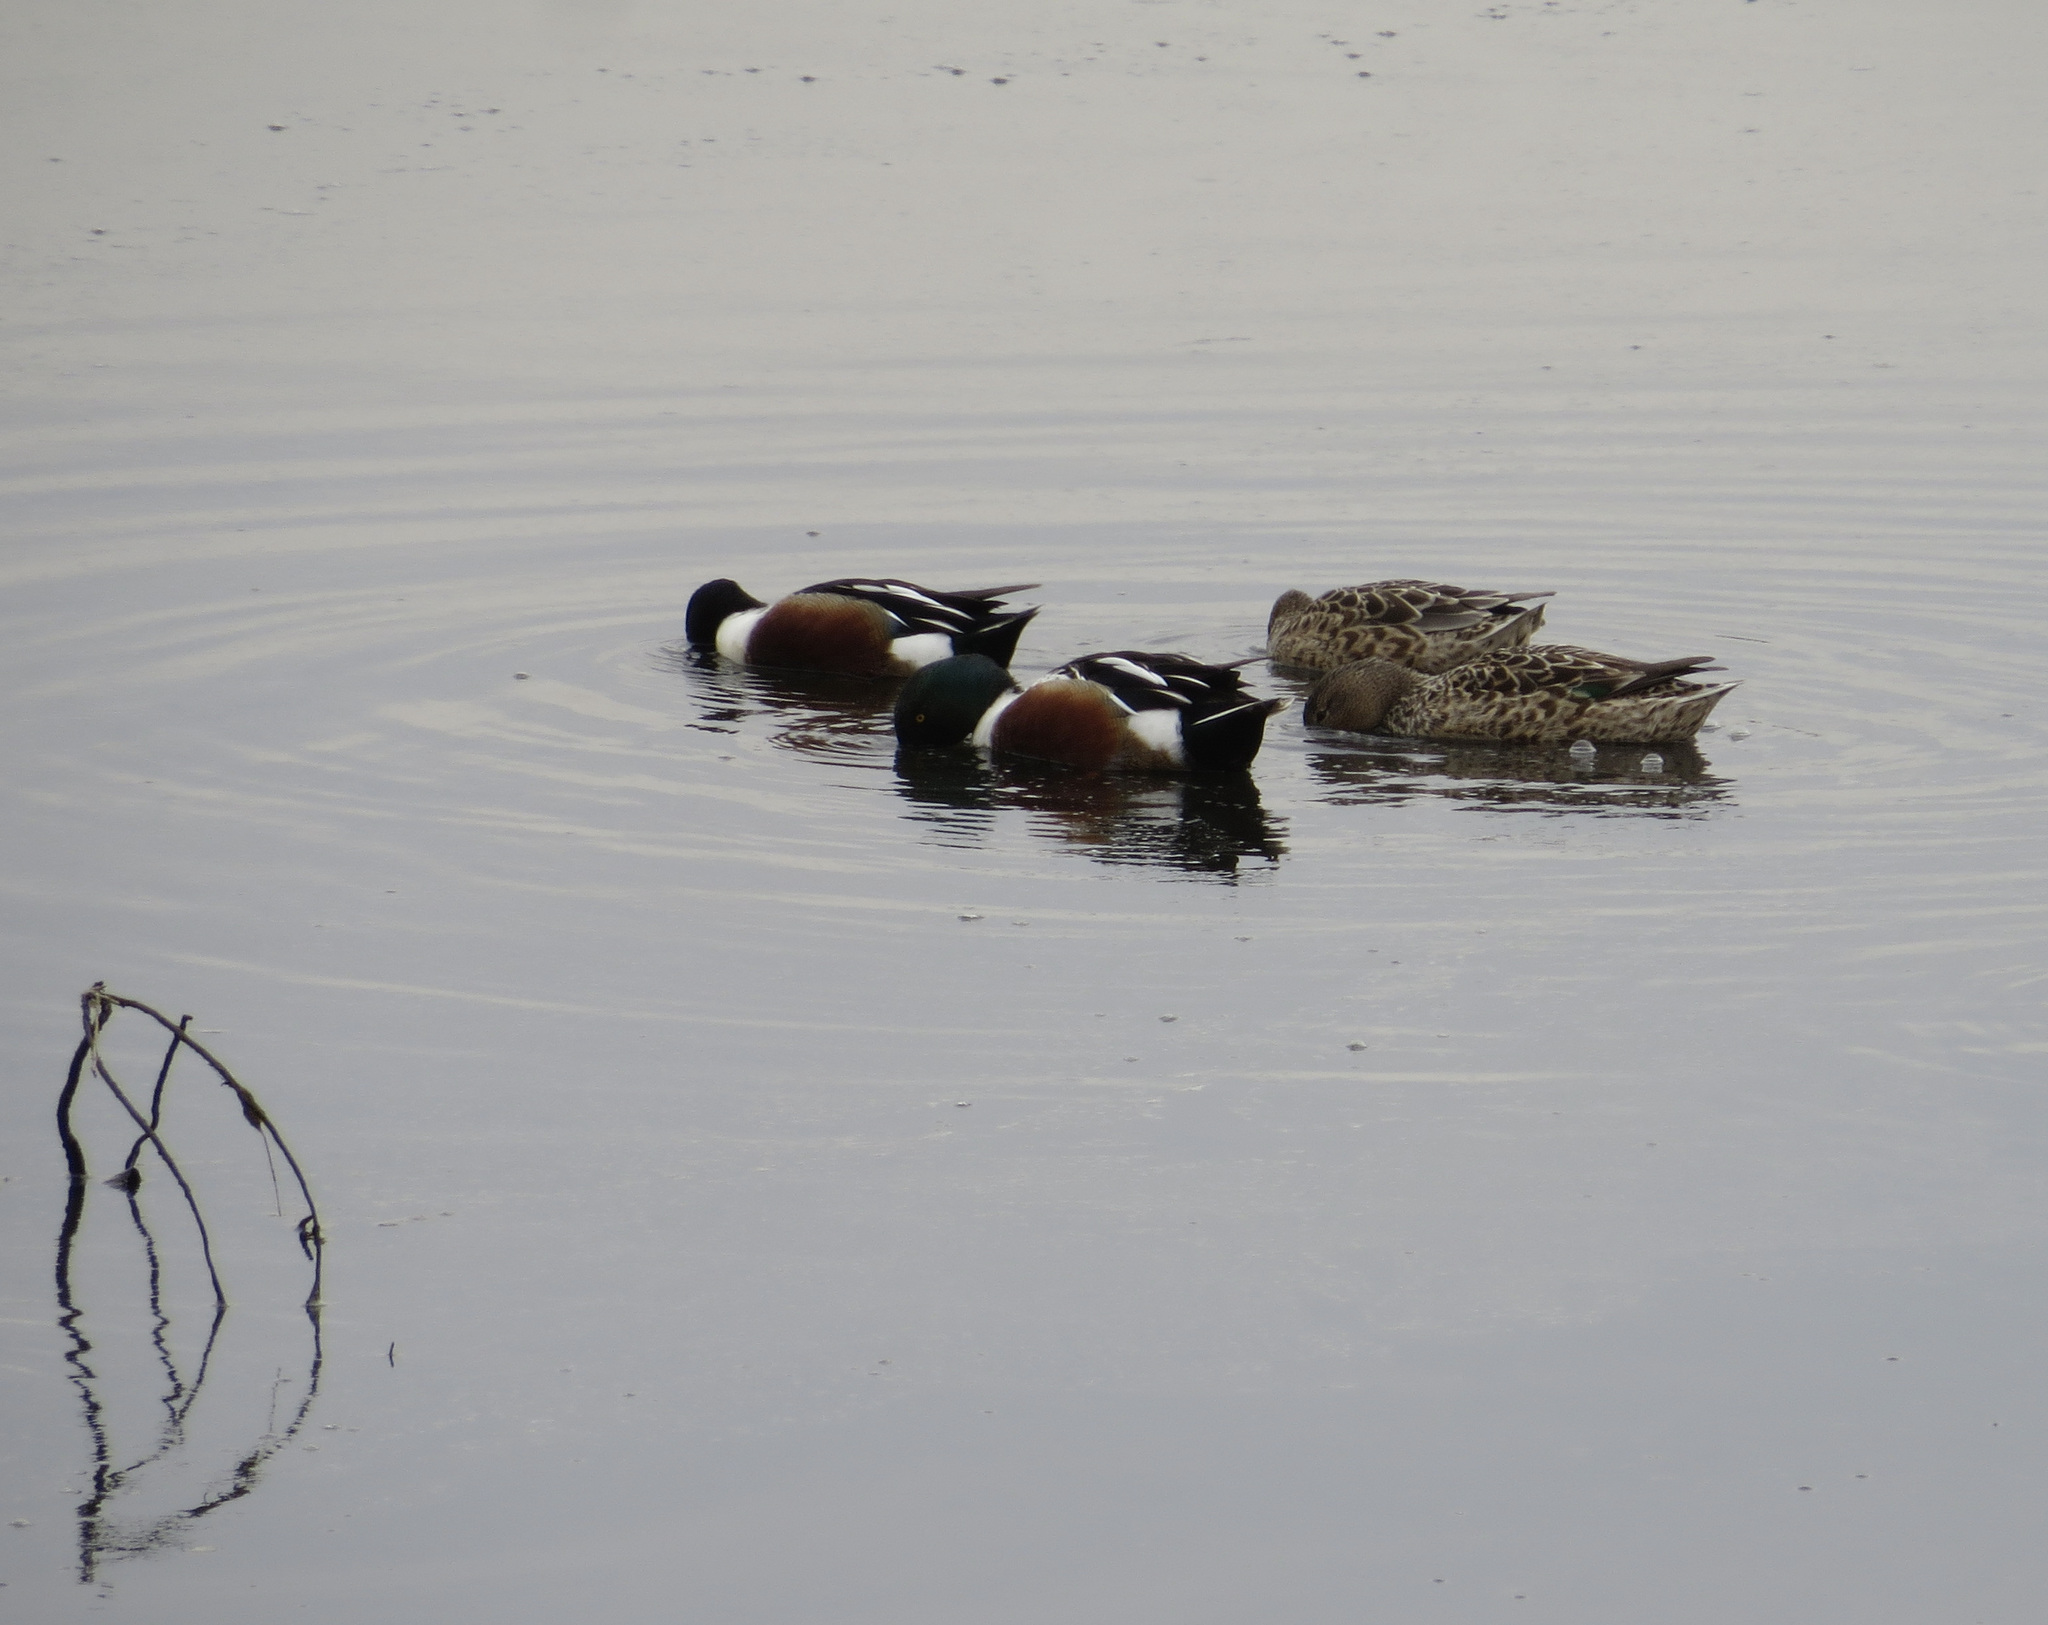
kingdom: Animalia
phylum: Chordata
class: Aves
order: Anseriformes
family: Anatidae
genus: Spatula
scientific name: Spatula clypeata
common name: Northern shoveler
